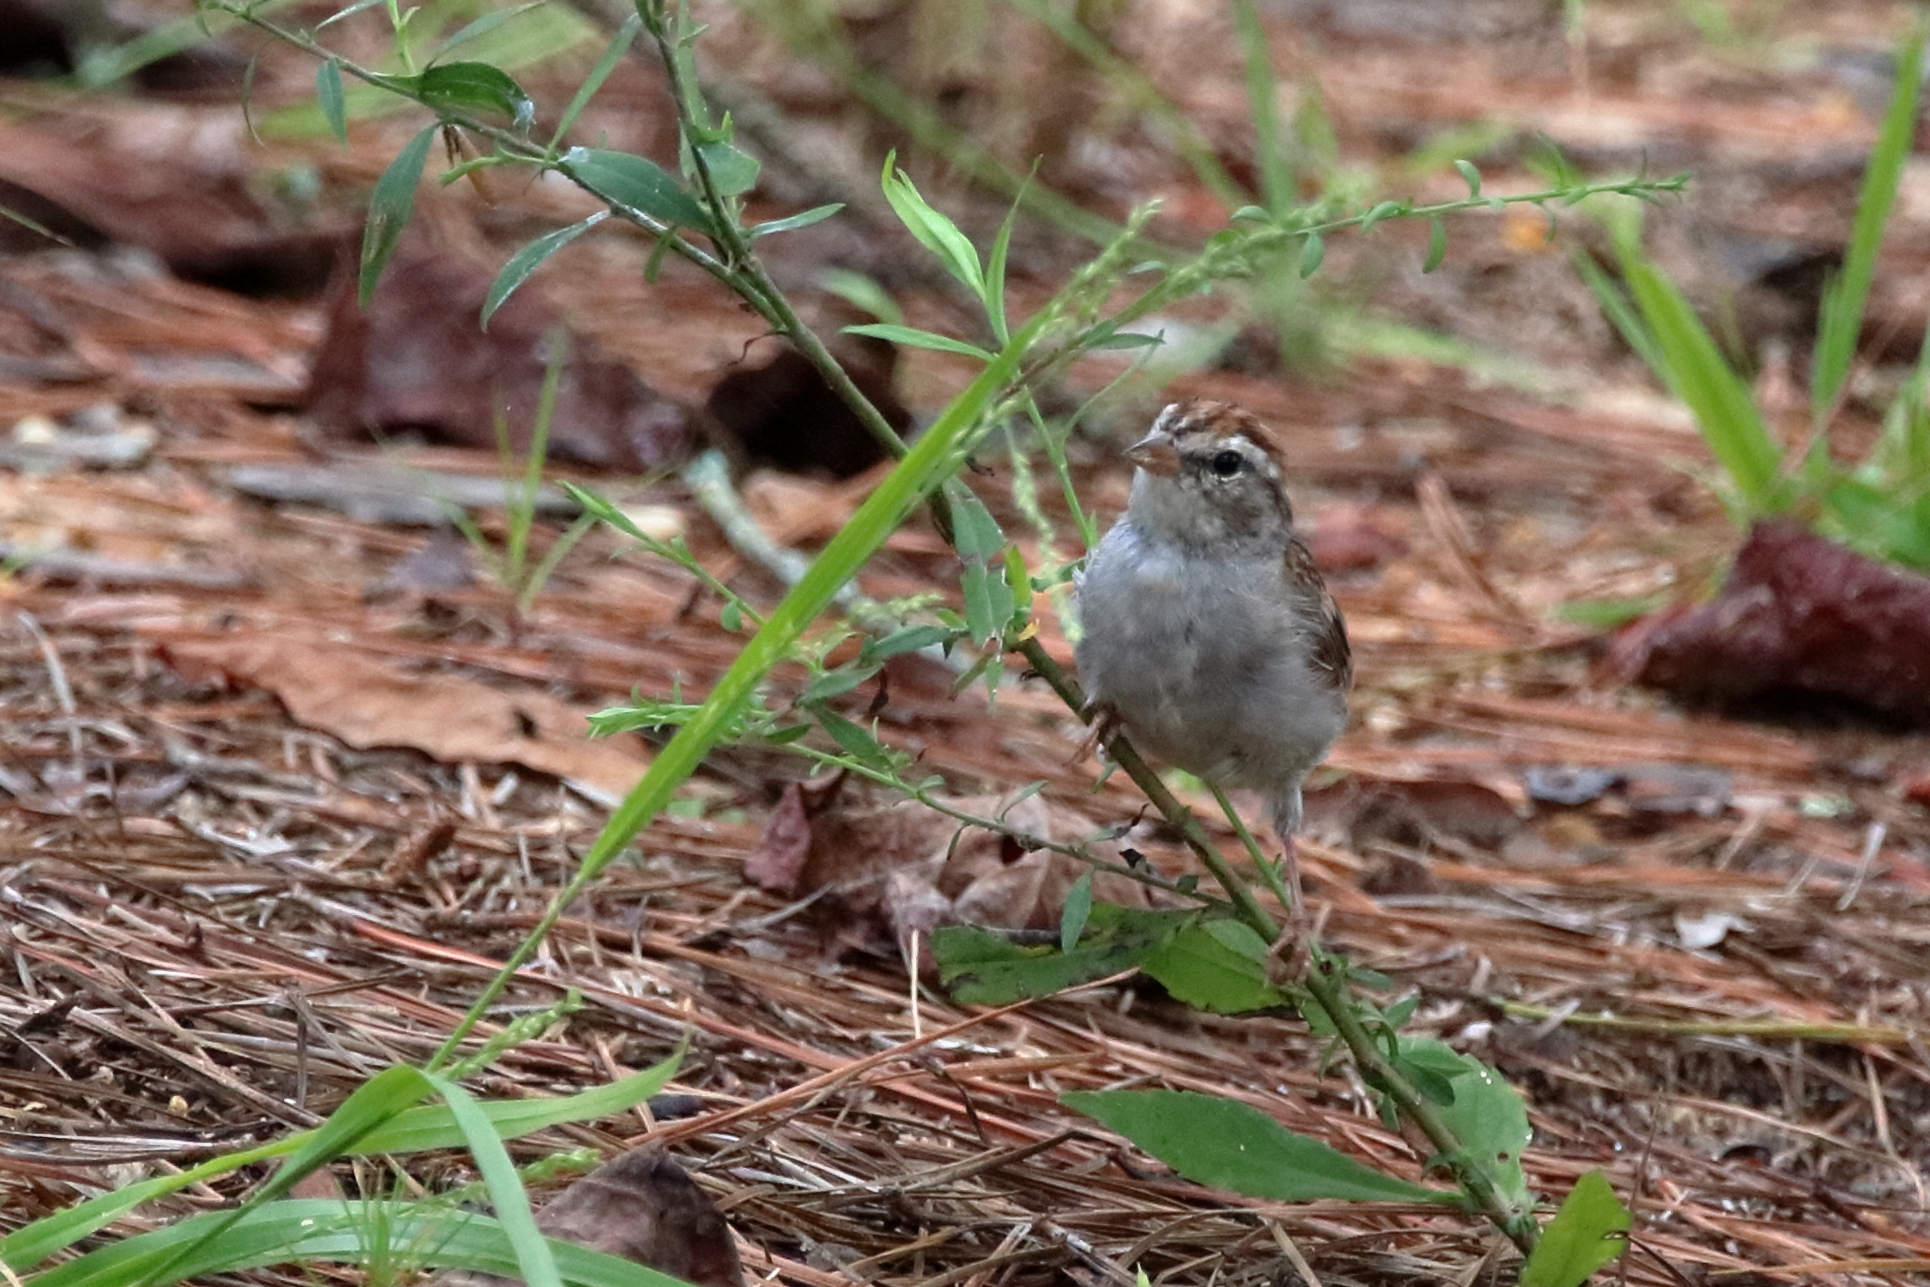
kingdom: Animalia
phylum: Chordata
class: Aves
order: Passeriformes
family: Passerellidae
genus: Spizella
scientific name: Spizella passerina
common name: Chipping sparrow
